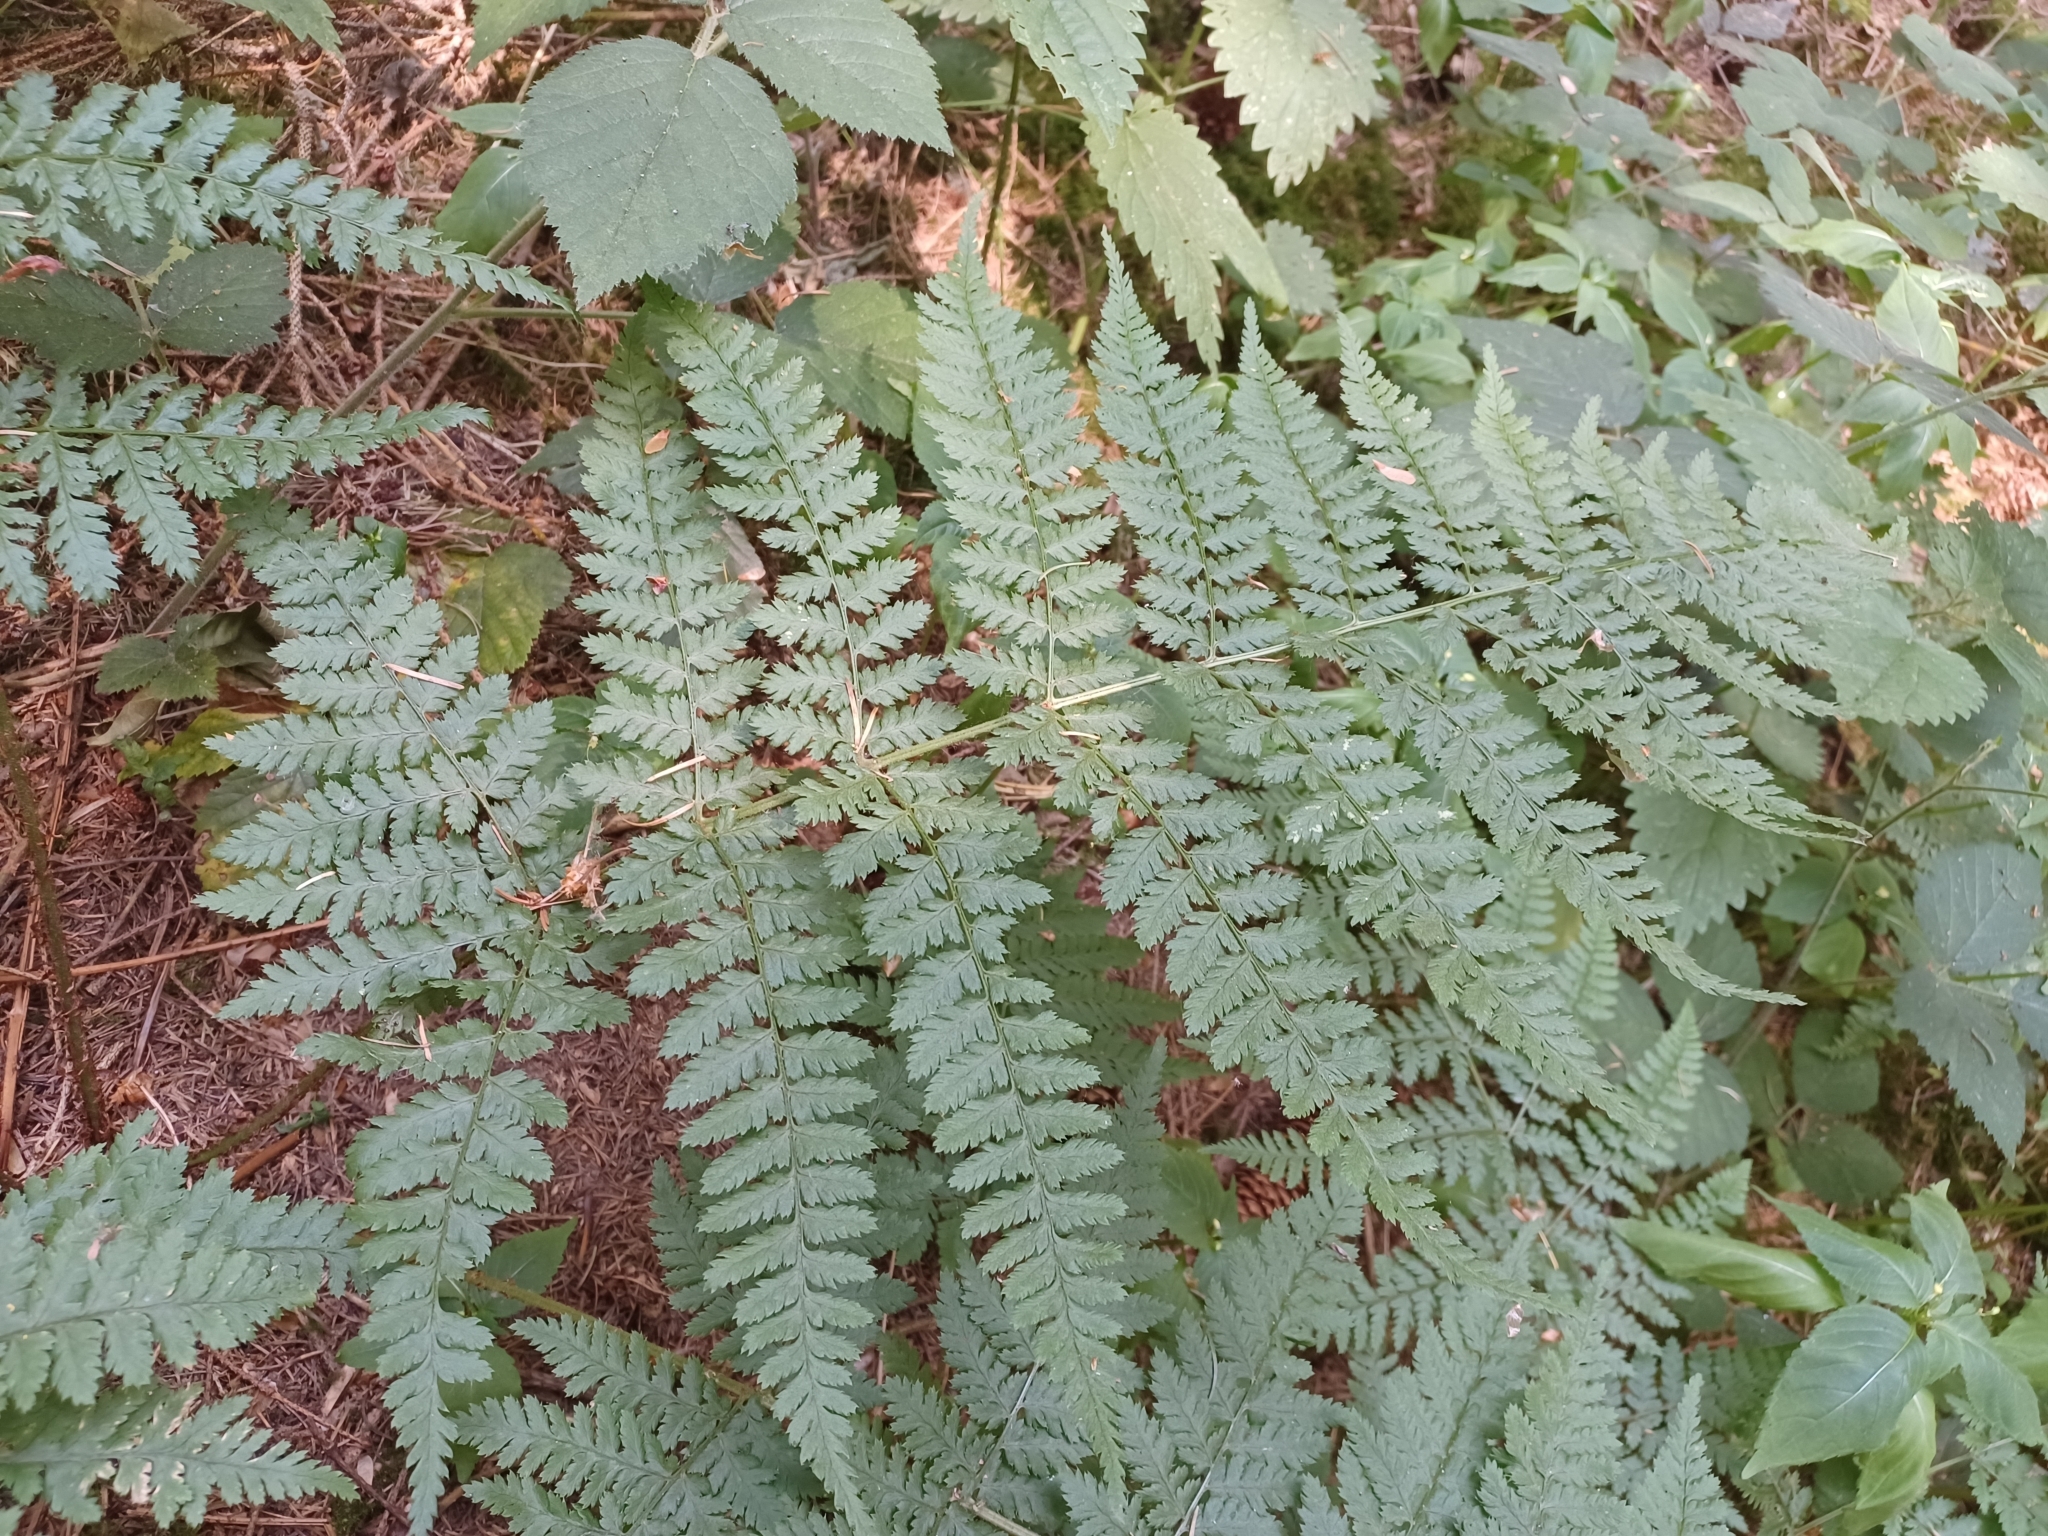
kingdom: Plantae
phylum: Tracheophyta
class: Polypodiopsida
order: Polypodiales
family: Dryopteridaceae
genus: Dryopteris
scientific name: Dryopteris dilatata
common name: Broad buckler-fern
